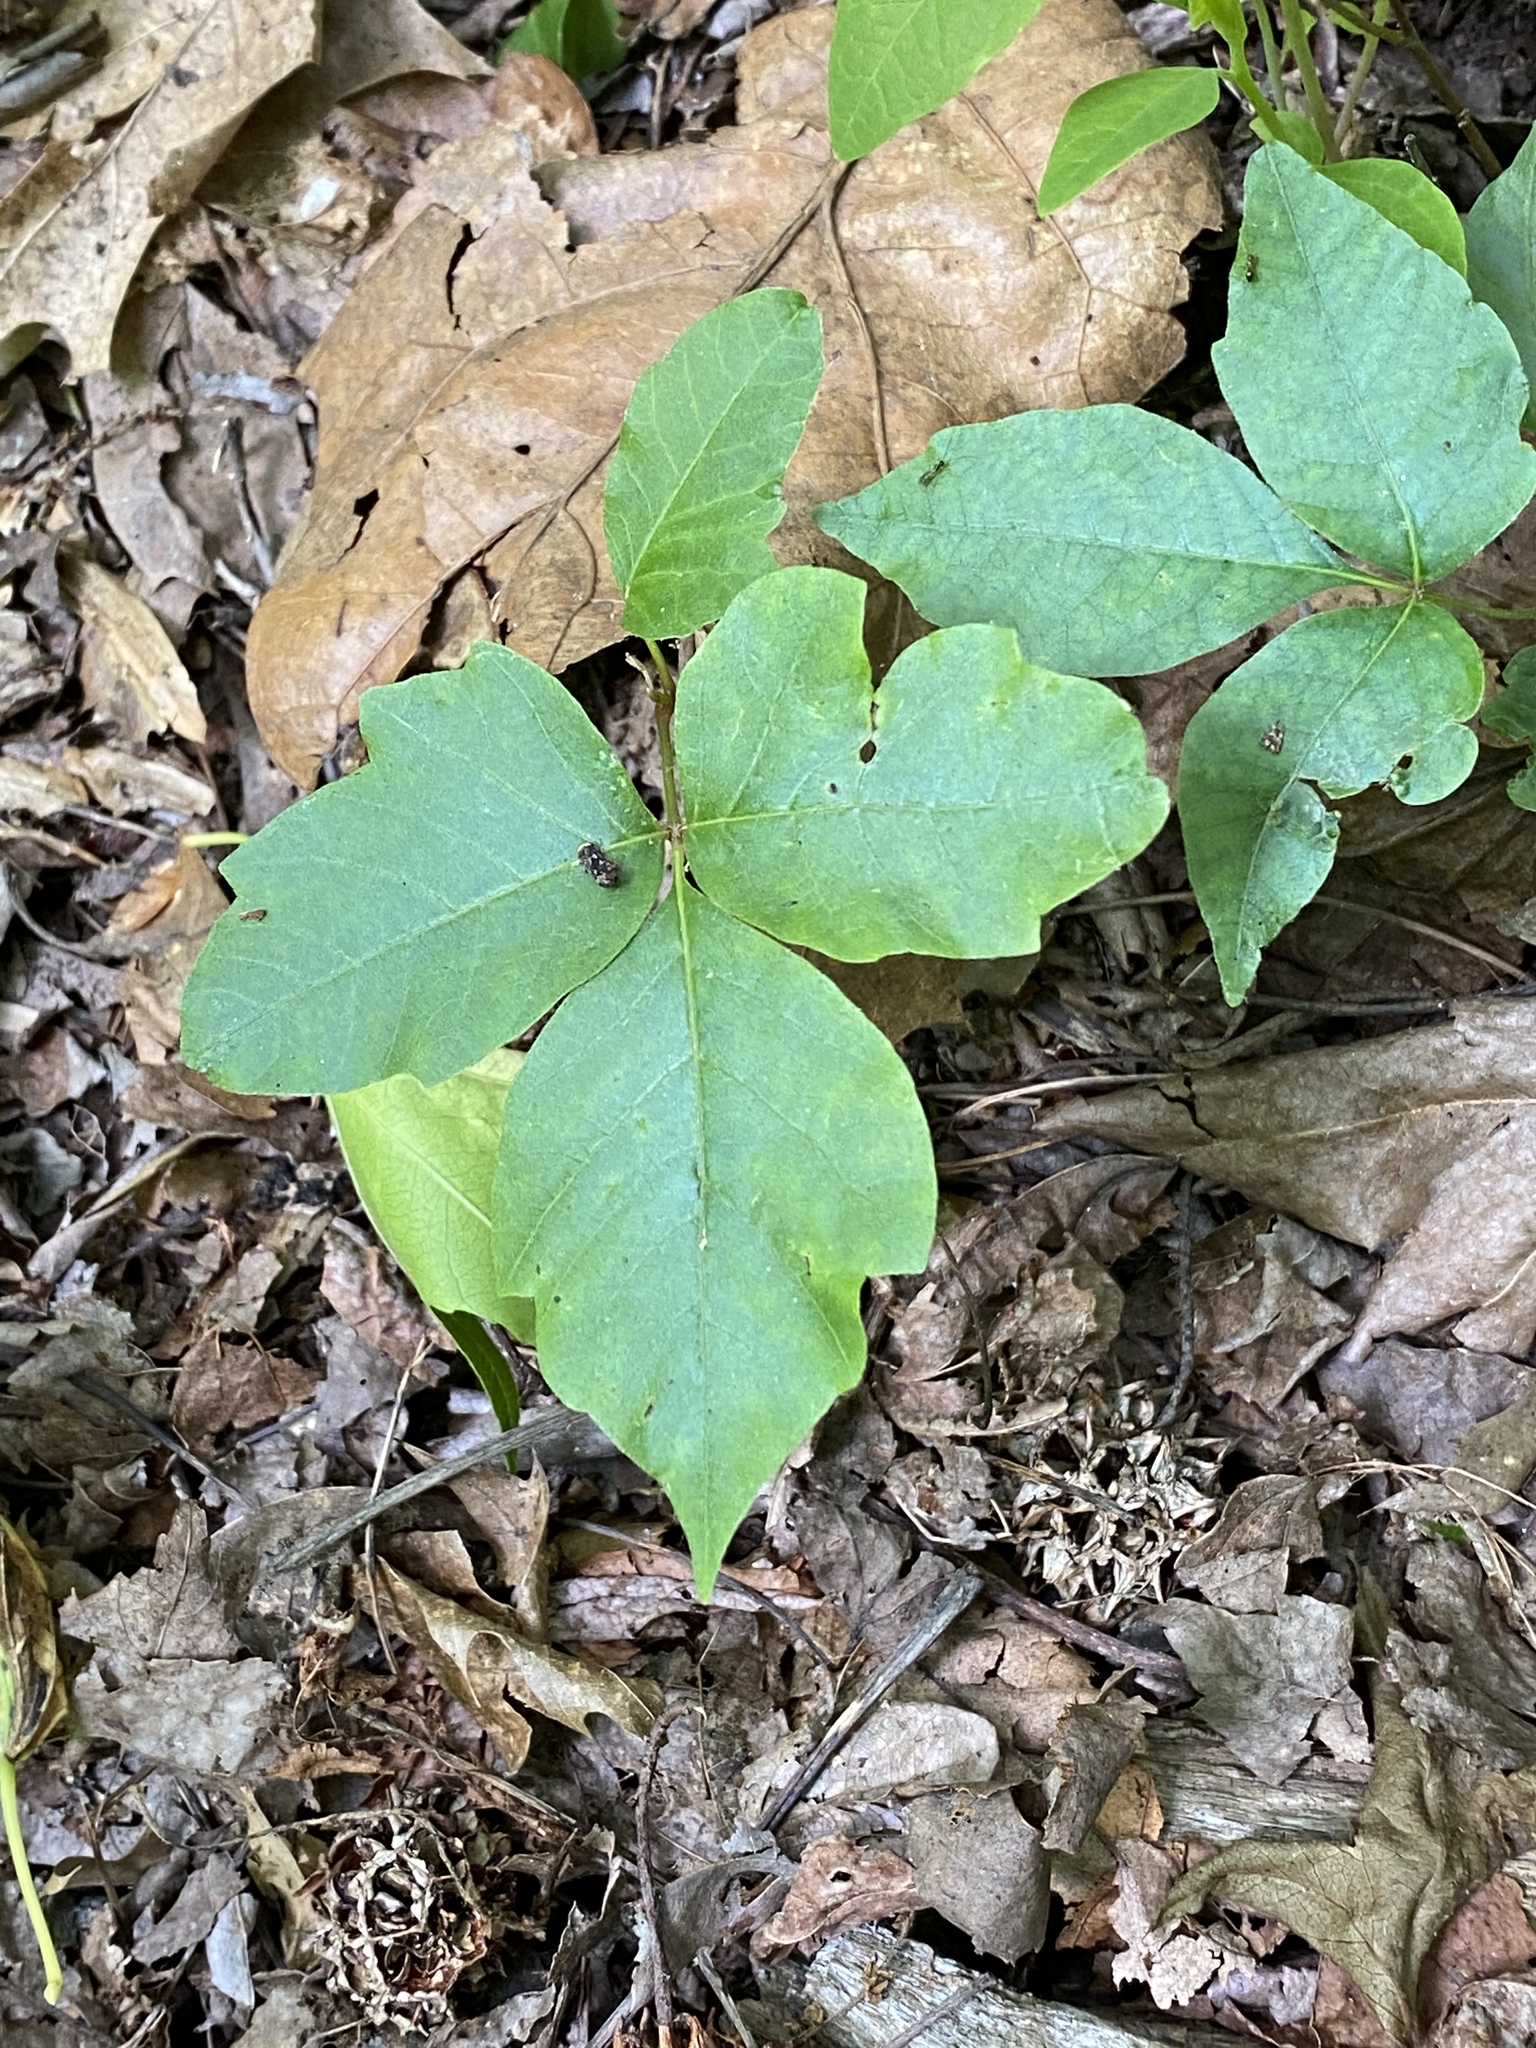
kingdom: Plantae
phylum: Tracheophyta
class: Magnoliopsida
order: Sapindales
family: Anacardiaceae
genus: Toxicodendron
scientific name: Toxicodendron radicans
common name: Poison ivy
